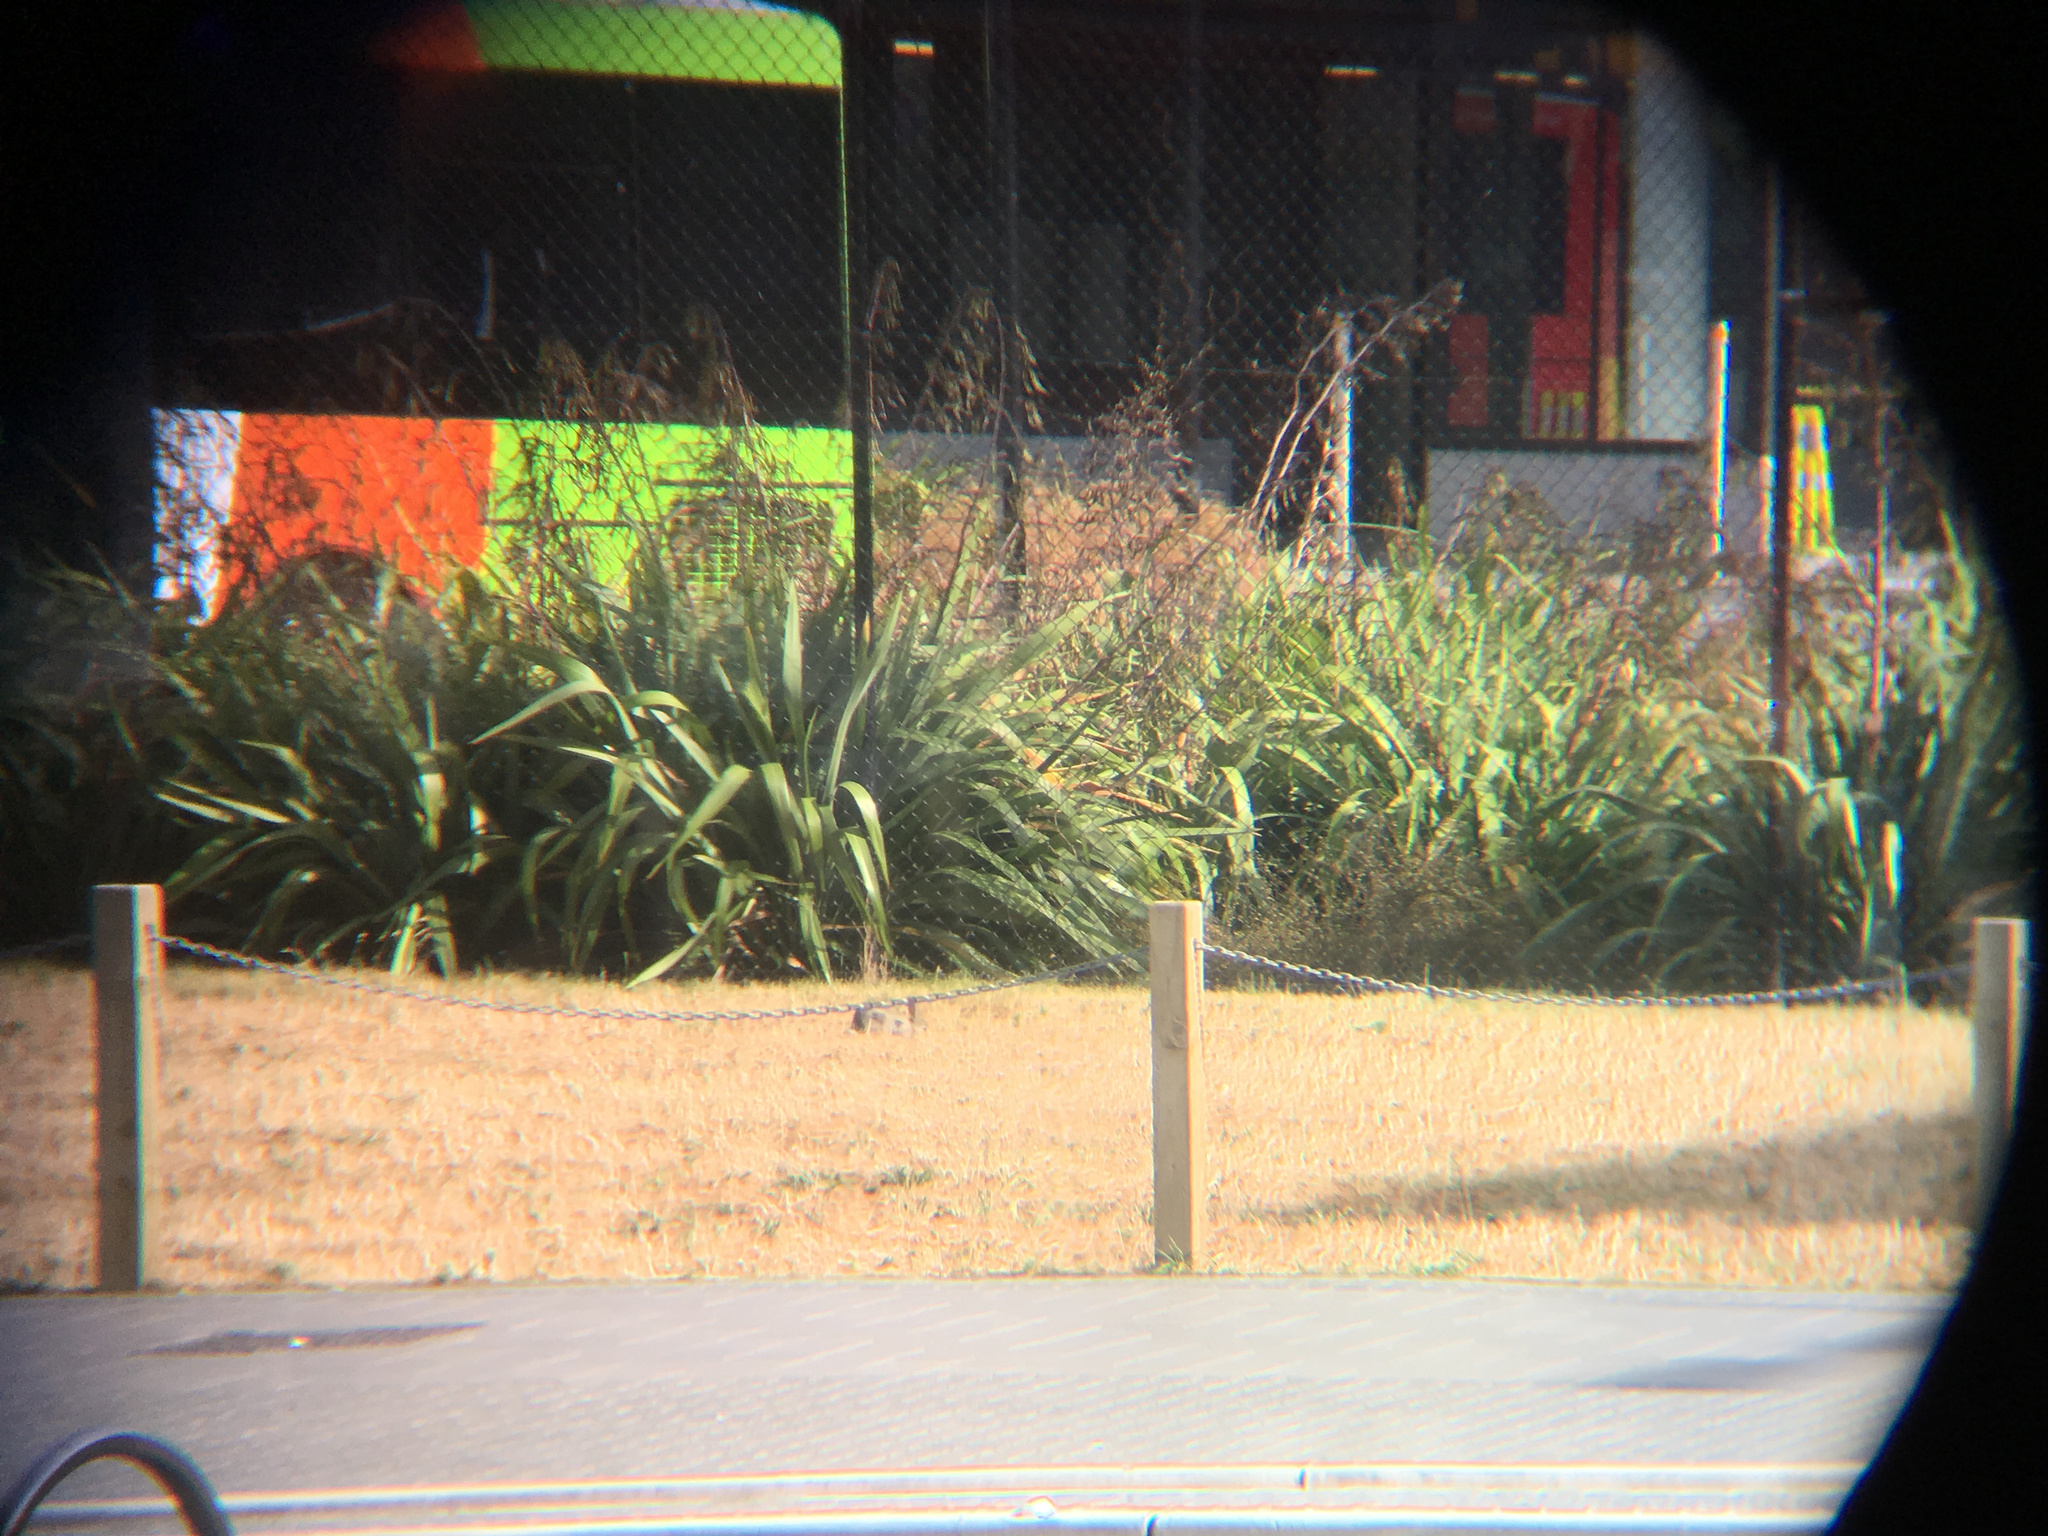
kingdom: Animalia
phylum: Chordata
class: Mammalia
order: Lagomorpha
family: Leporidae
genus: Oryctolagus
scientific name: Oryctolagus cuniculus
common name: European rabbit
